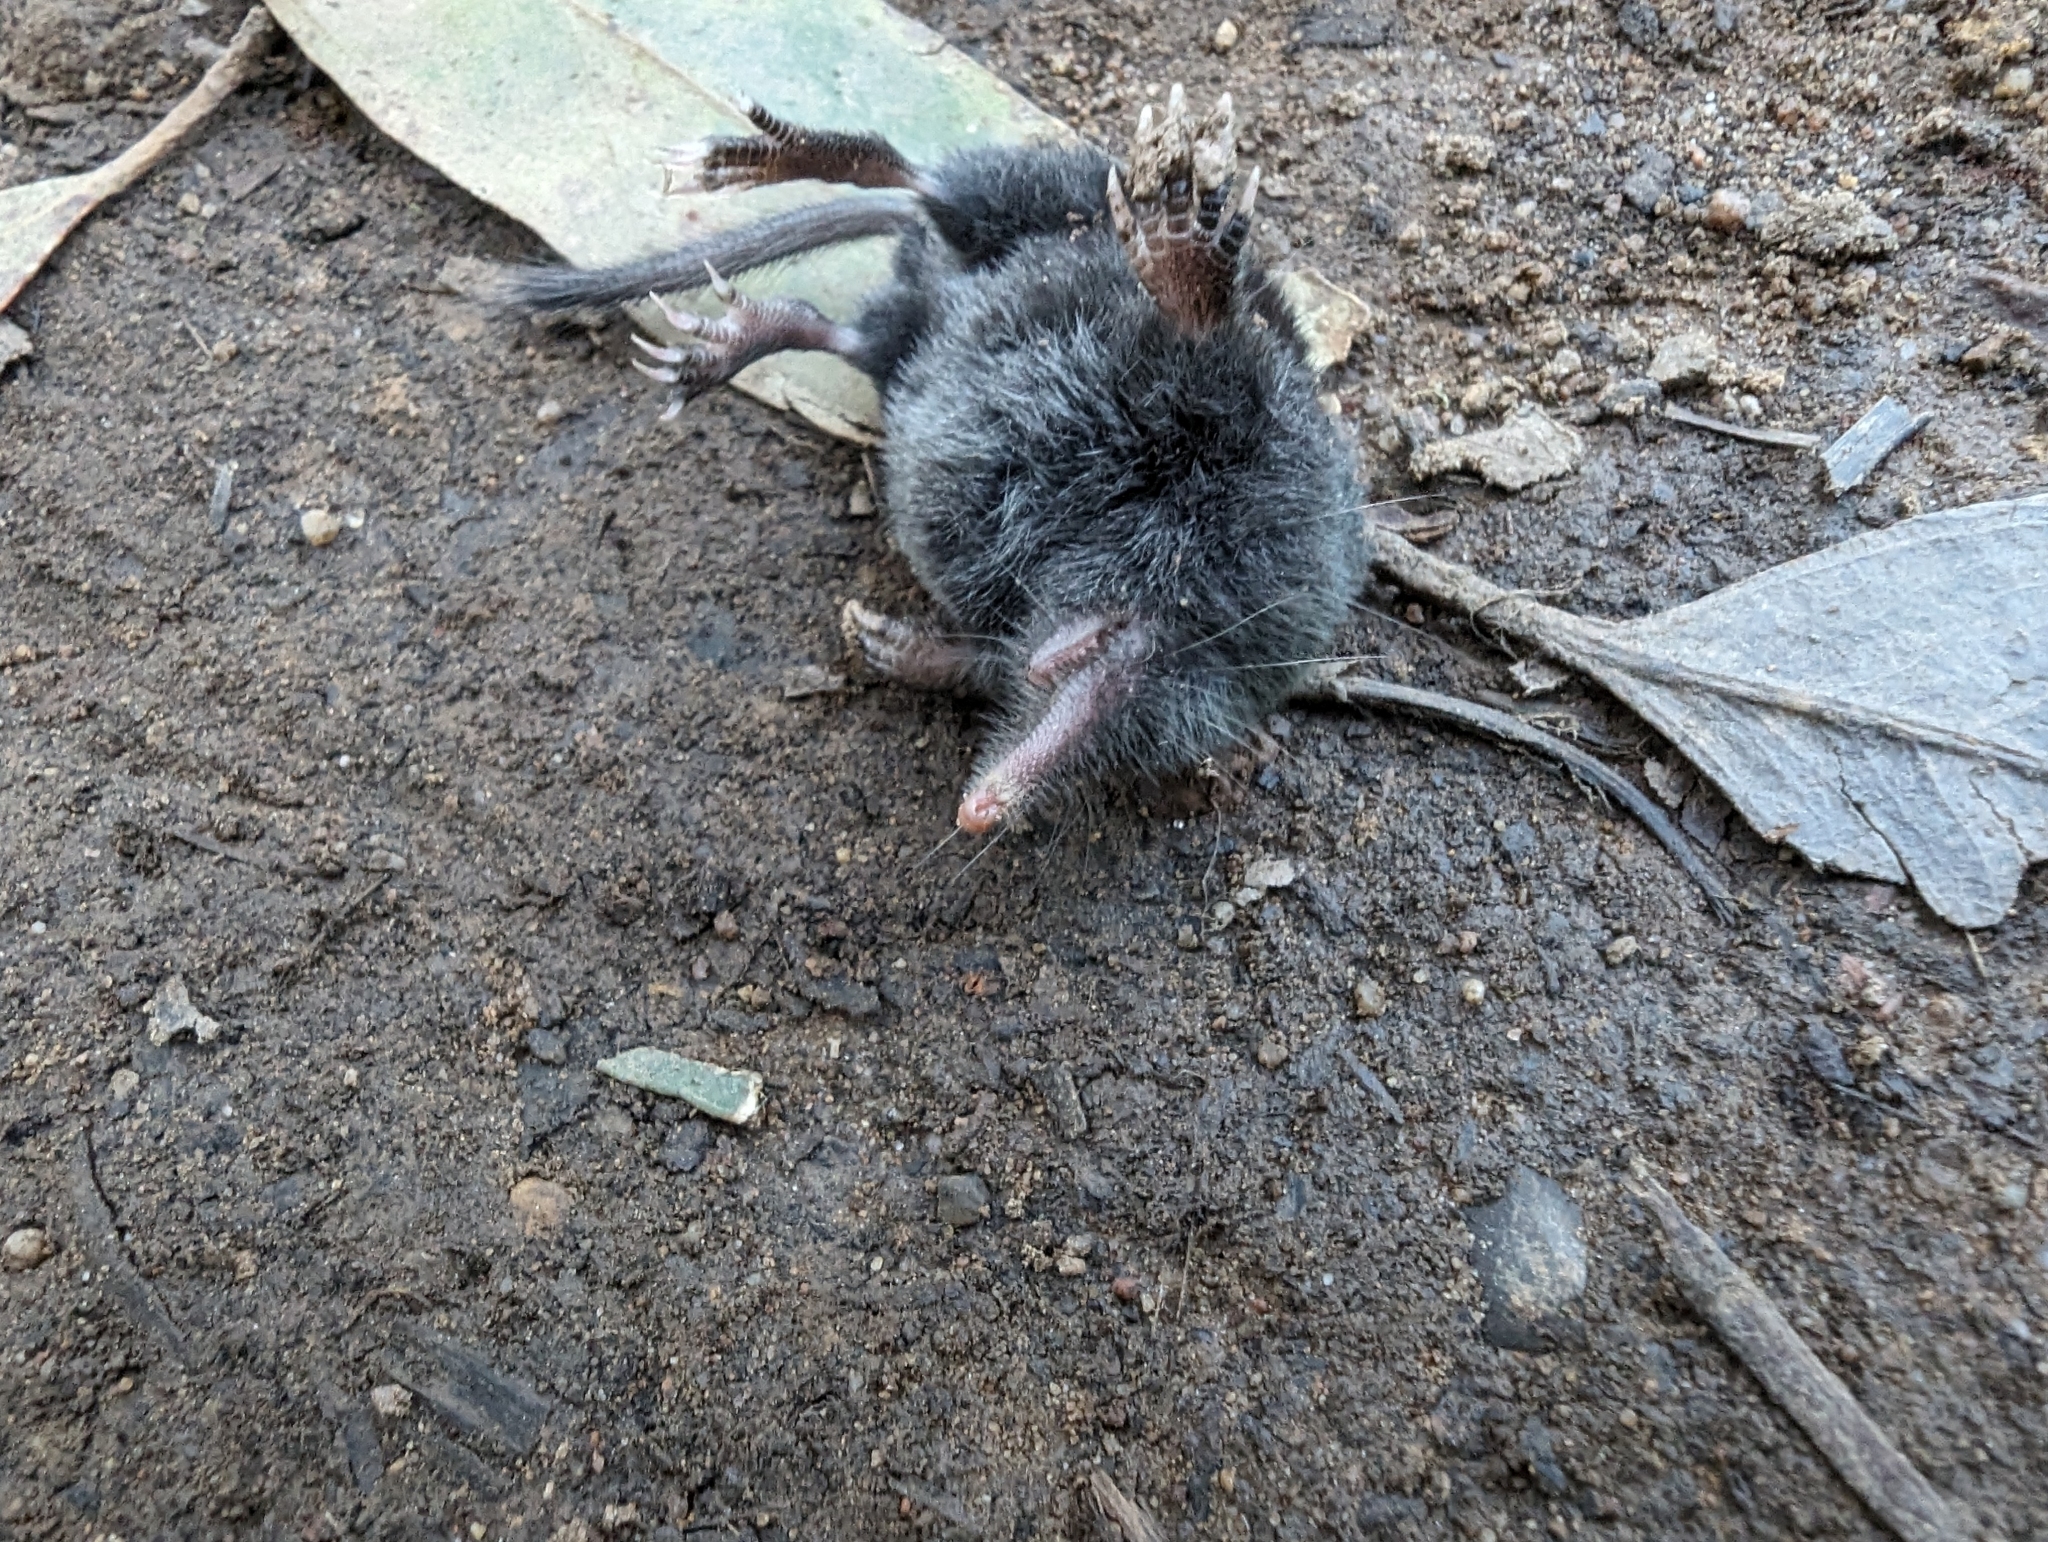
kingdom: Animalia
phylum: Chordata
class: Mammalia
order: Soricomorpha
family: Talpidae
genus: Neurotrichus
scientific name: Neurotrichus gibbsii
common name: American shrew mole
